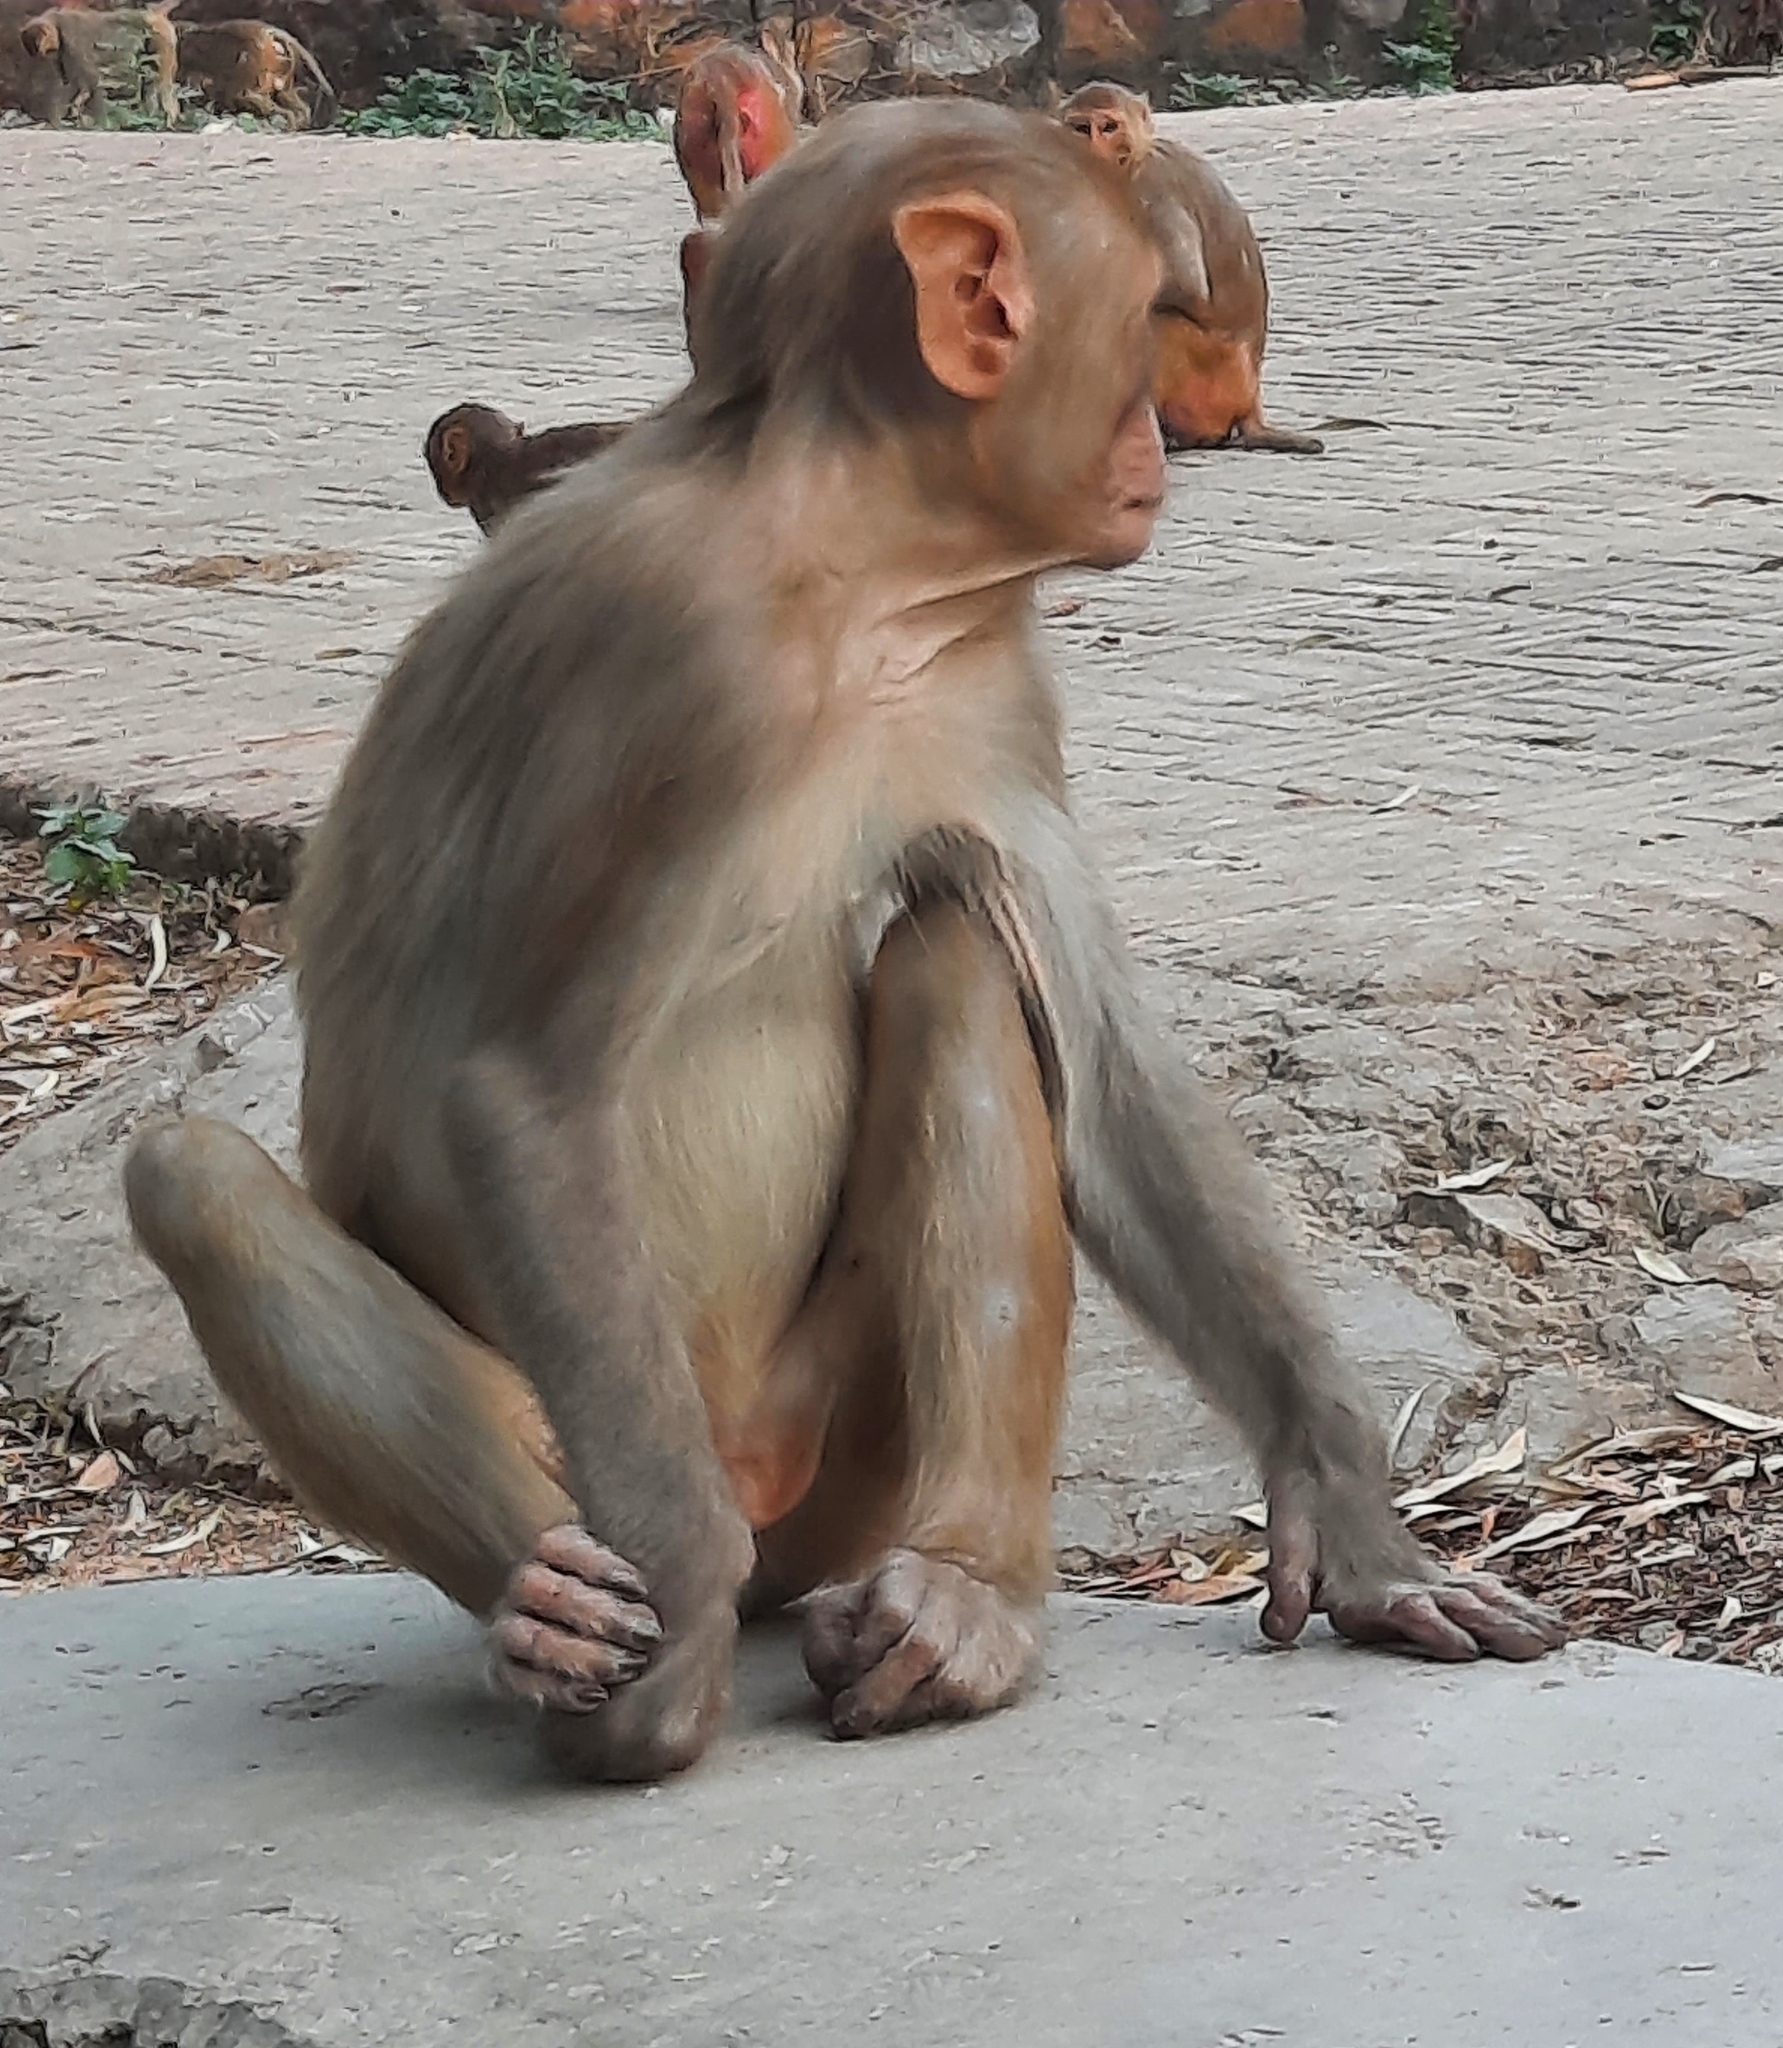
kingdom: Animalia
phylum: Chordata
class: Mammalia
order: Primates
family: Cercopithecidae
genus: Macaca
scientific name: Macaca mulatta
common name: Rhesus monkey
